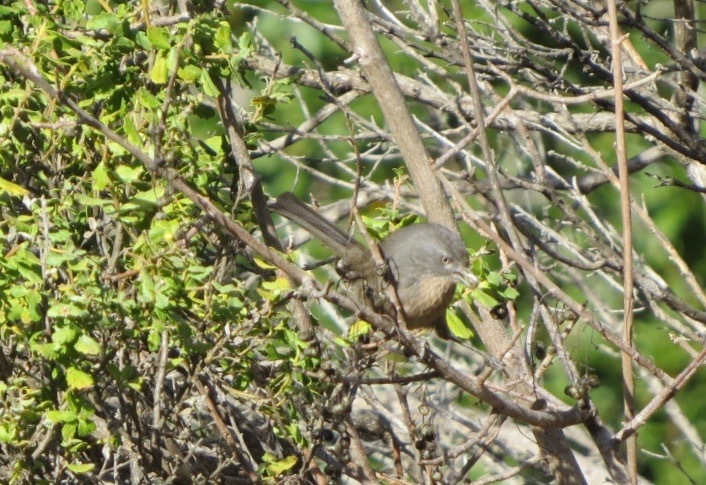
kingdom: Animalia
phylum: Chordata
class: Aves
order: Passeriformes
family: Sylviidae
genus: Chamaea
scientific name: Chamaea fasciata
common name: Wrentit
